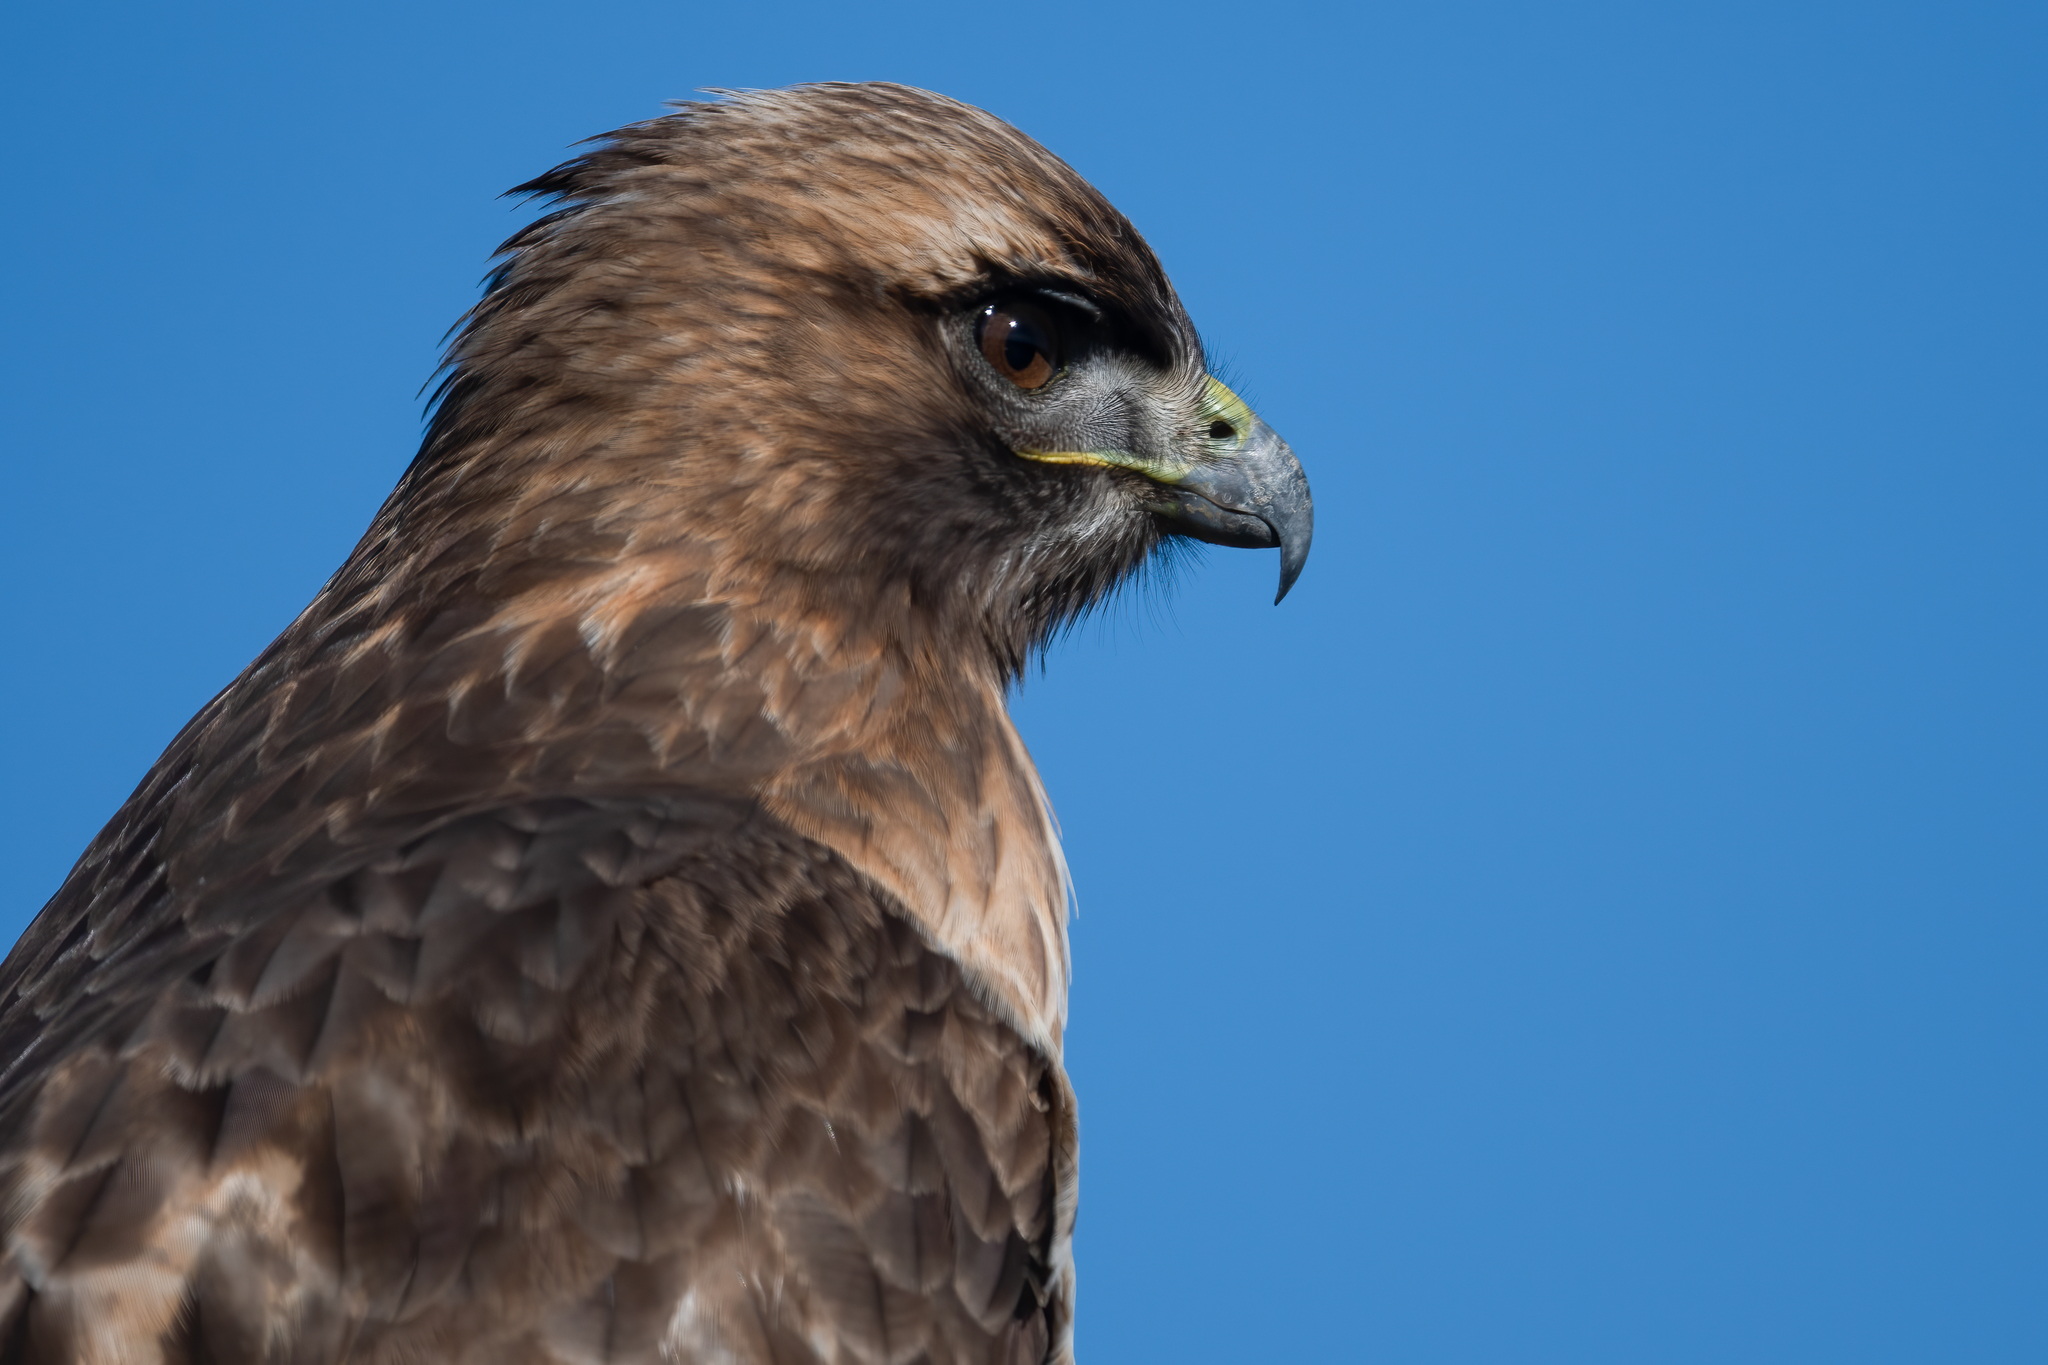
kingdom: Animalia
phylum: Chordata
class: Aves
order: Accipitriformes
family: Accipitridae
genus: Buteo
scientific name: Buteo jamaicensis
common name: Red-tailed hawk
